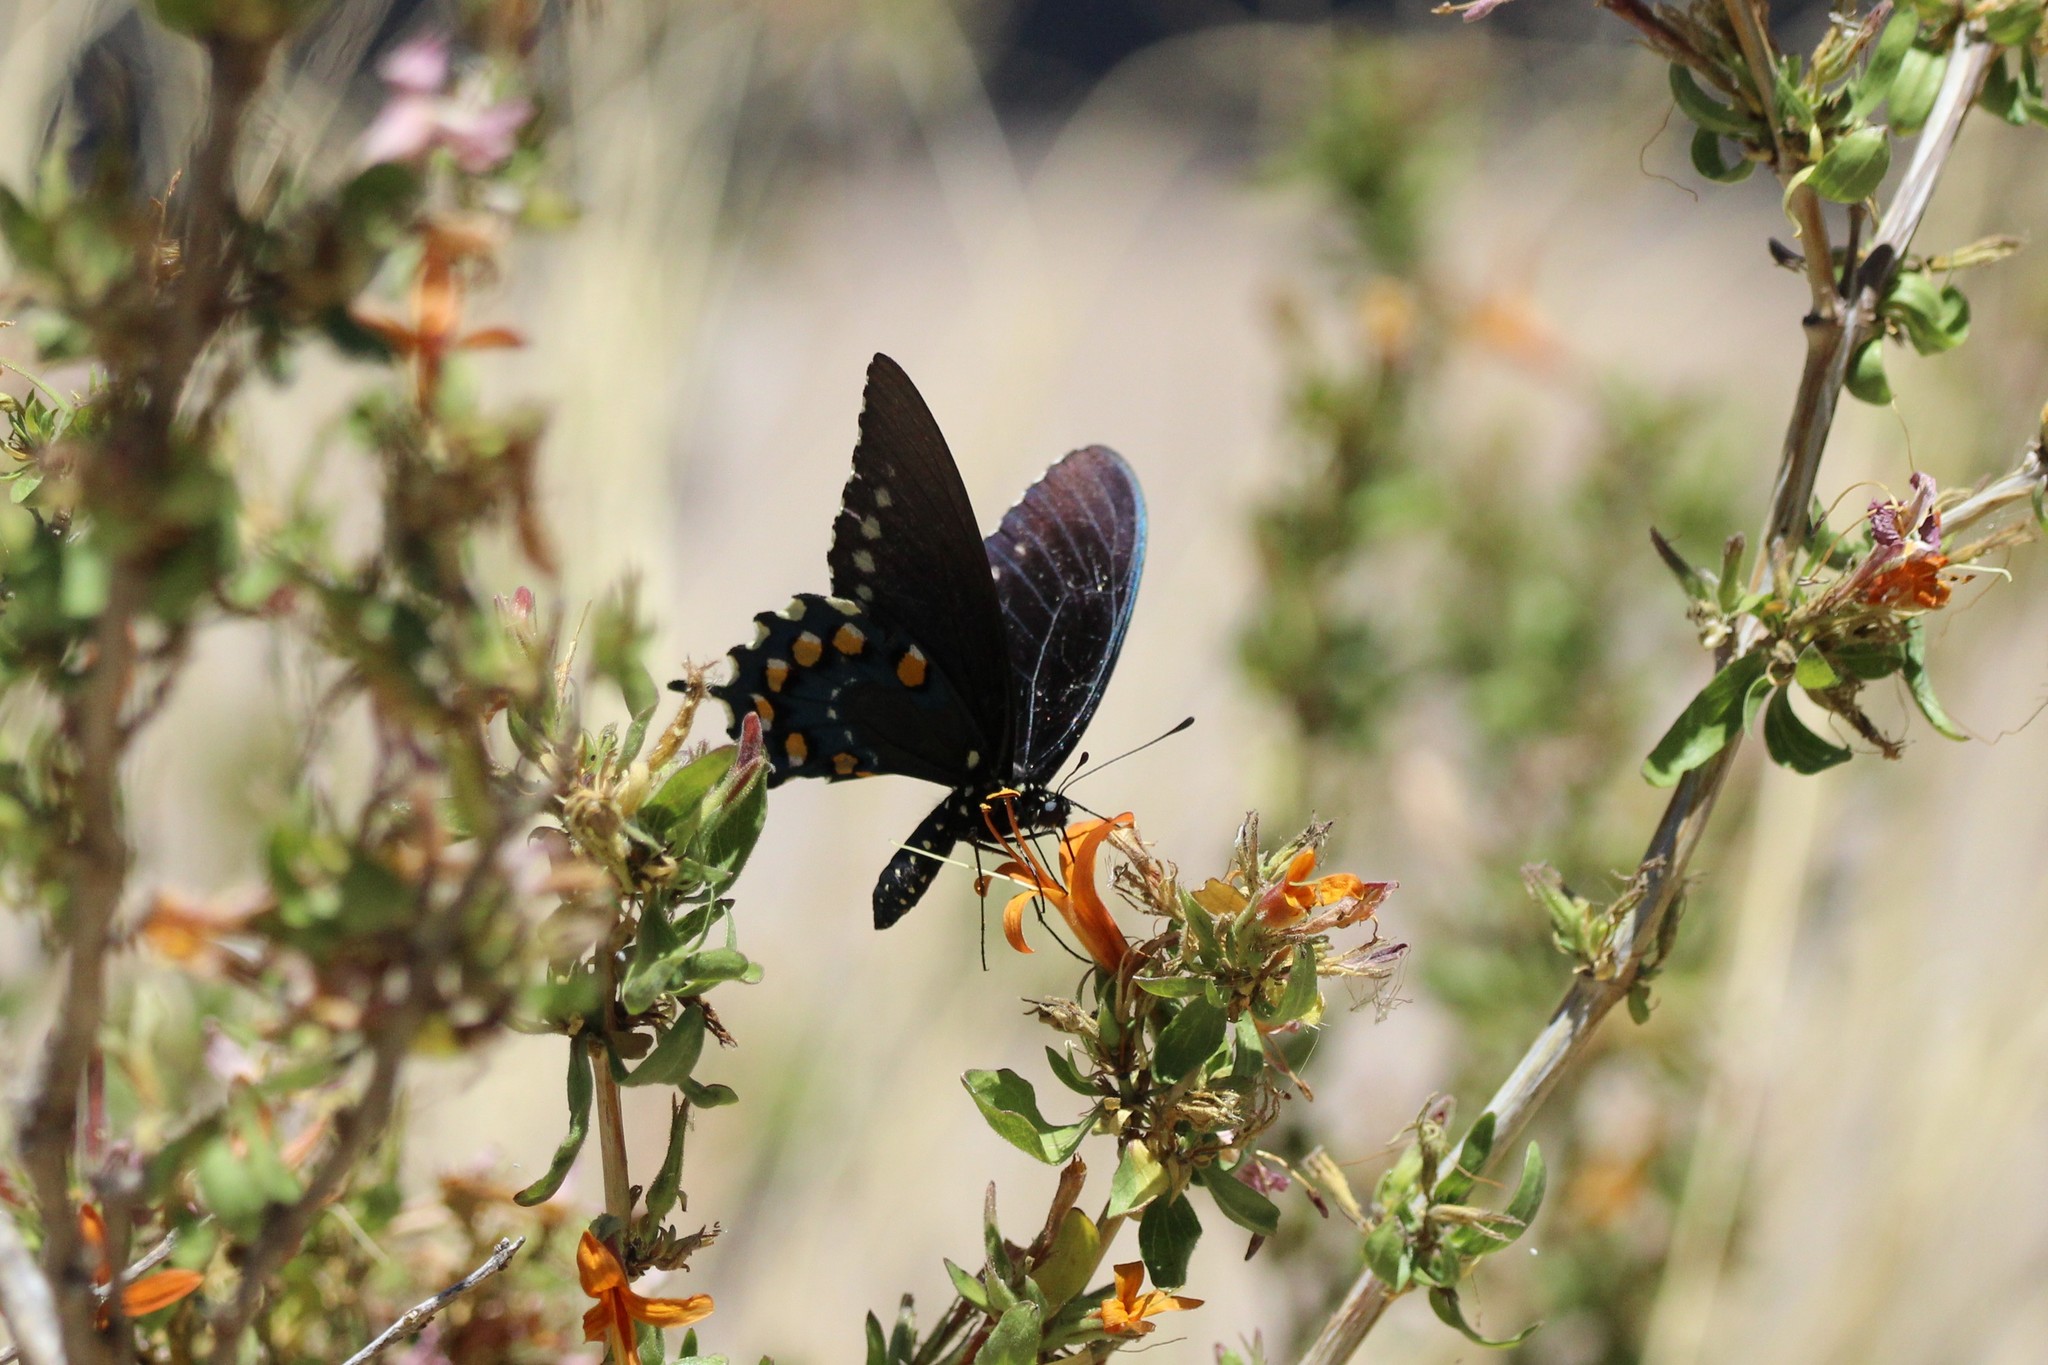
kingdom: Animalia
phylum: Arthropoda
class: Insecta
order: Lepidoptera
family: Papilionidae
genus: Battus
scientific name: Battus philenor
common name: Pipevine swallowtail
